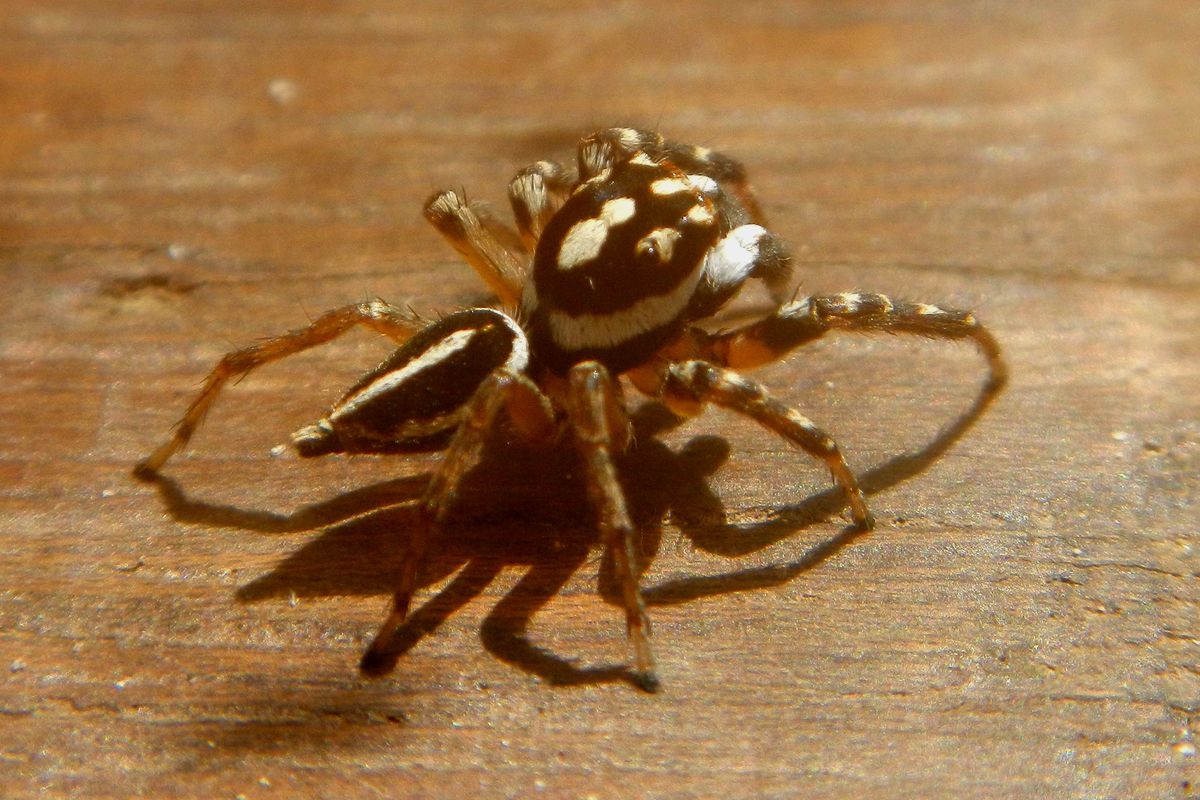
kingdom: Animalia
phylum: Arthropoda
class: Arachnida
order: Araneae
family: Salticidae
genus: Freya
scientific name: Freya decorata
